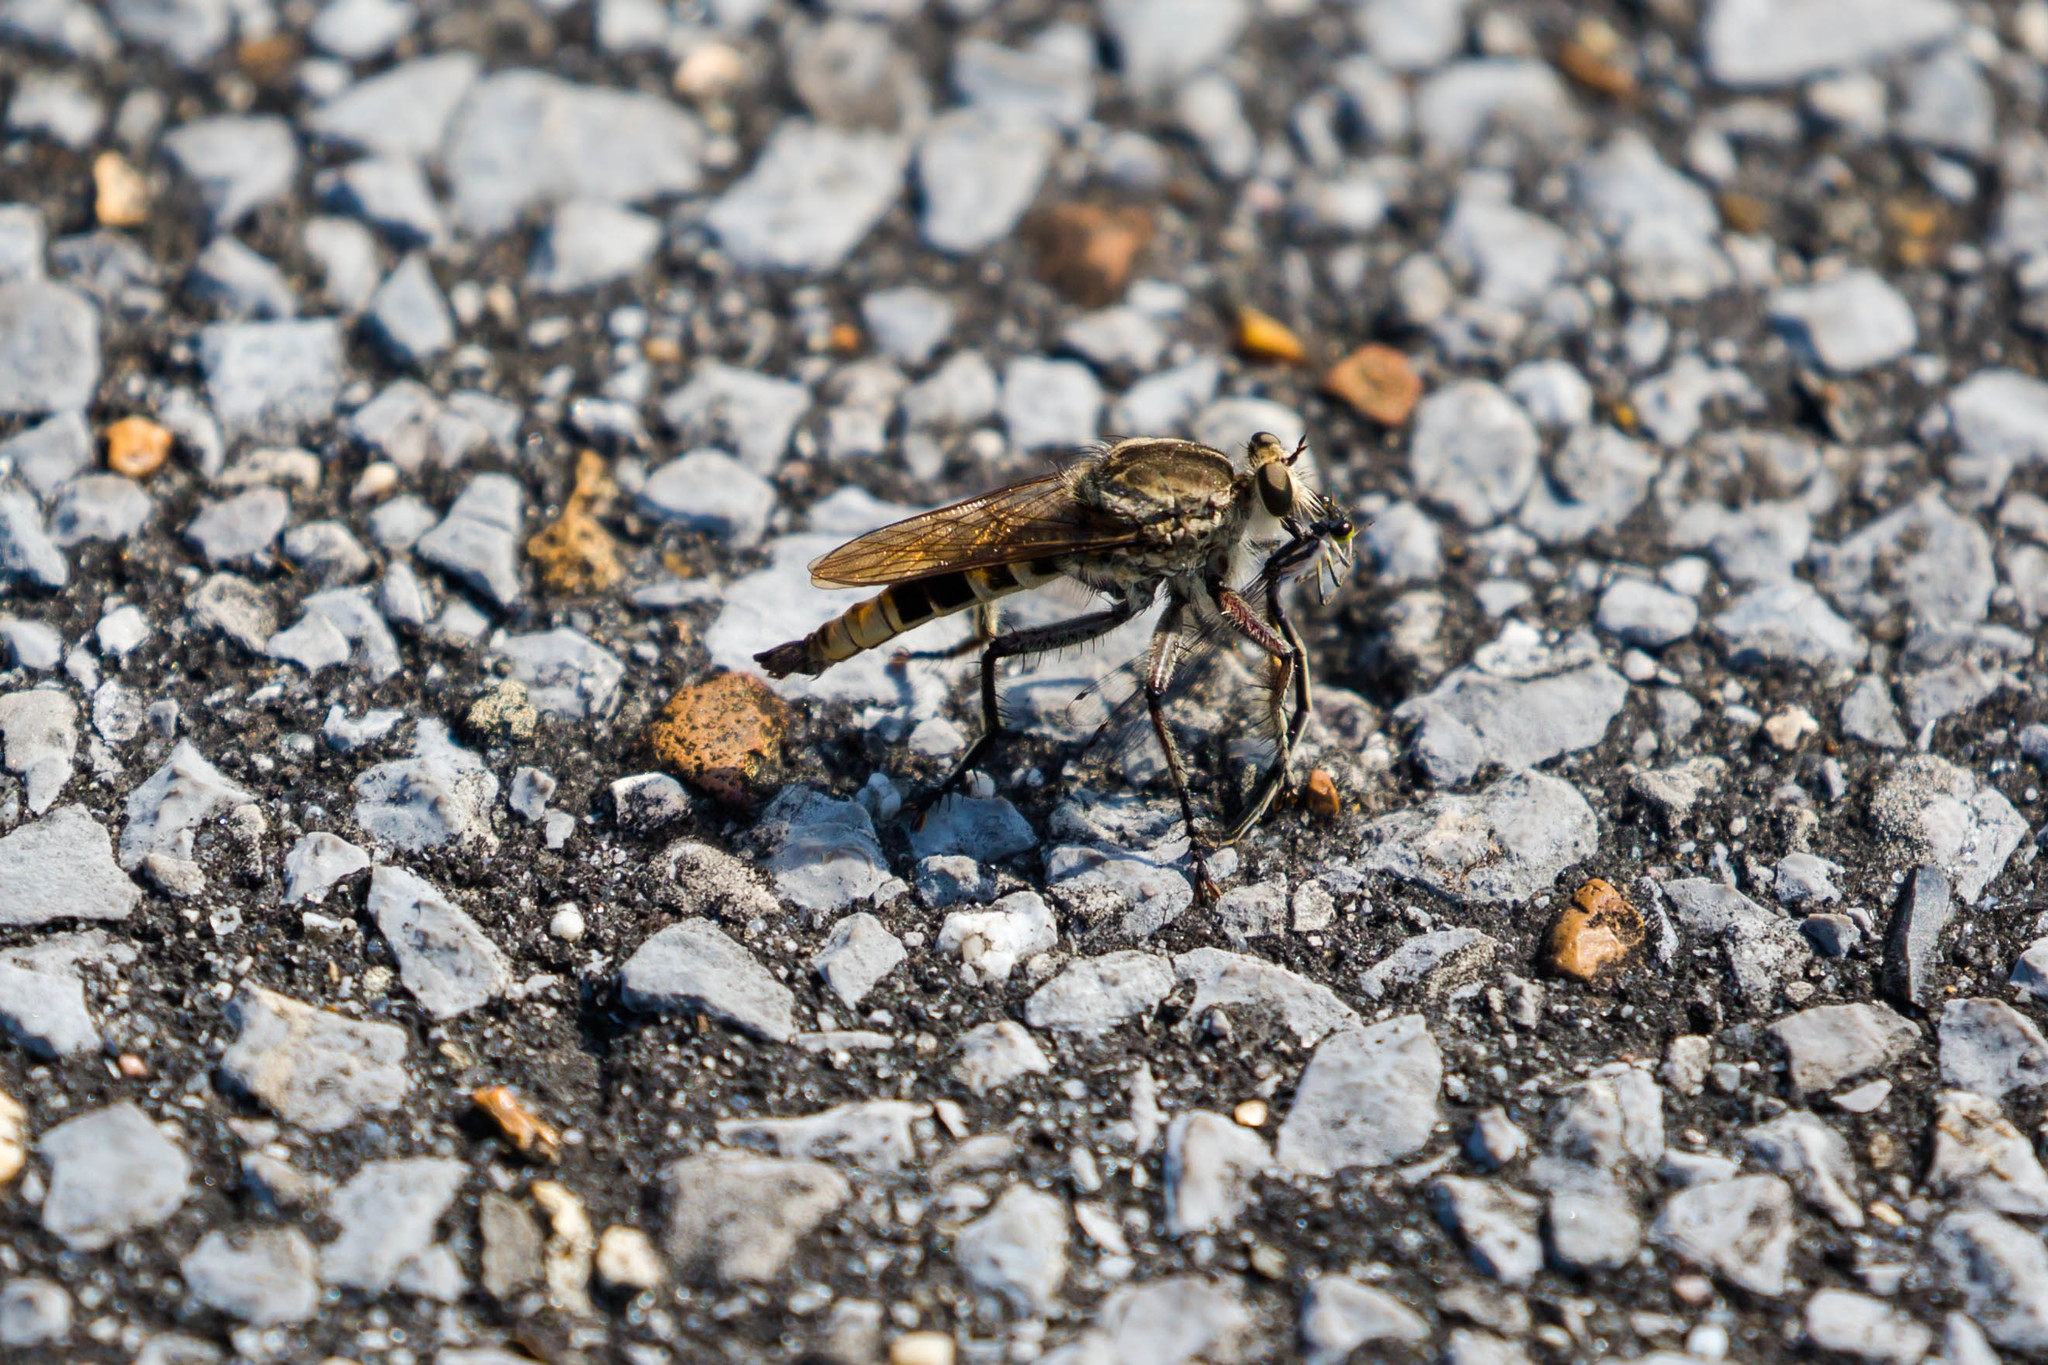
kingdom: Animalia
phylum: Arthropoda
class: Insecta
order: Diptera
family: Asilidae
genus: Triorla
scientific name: Triorla interrupta
